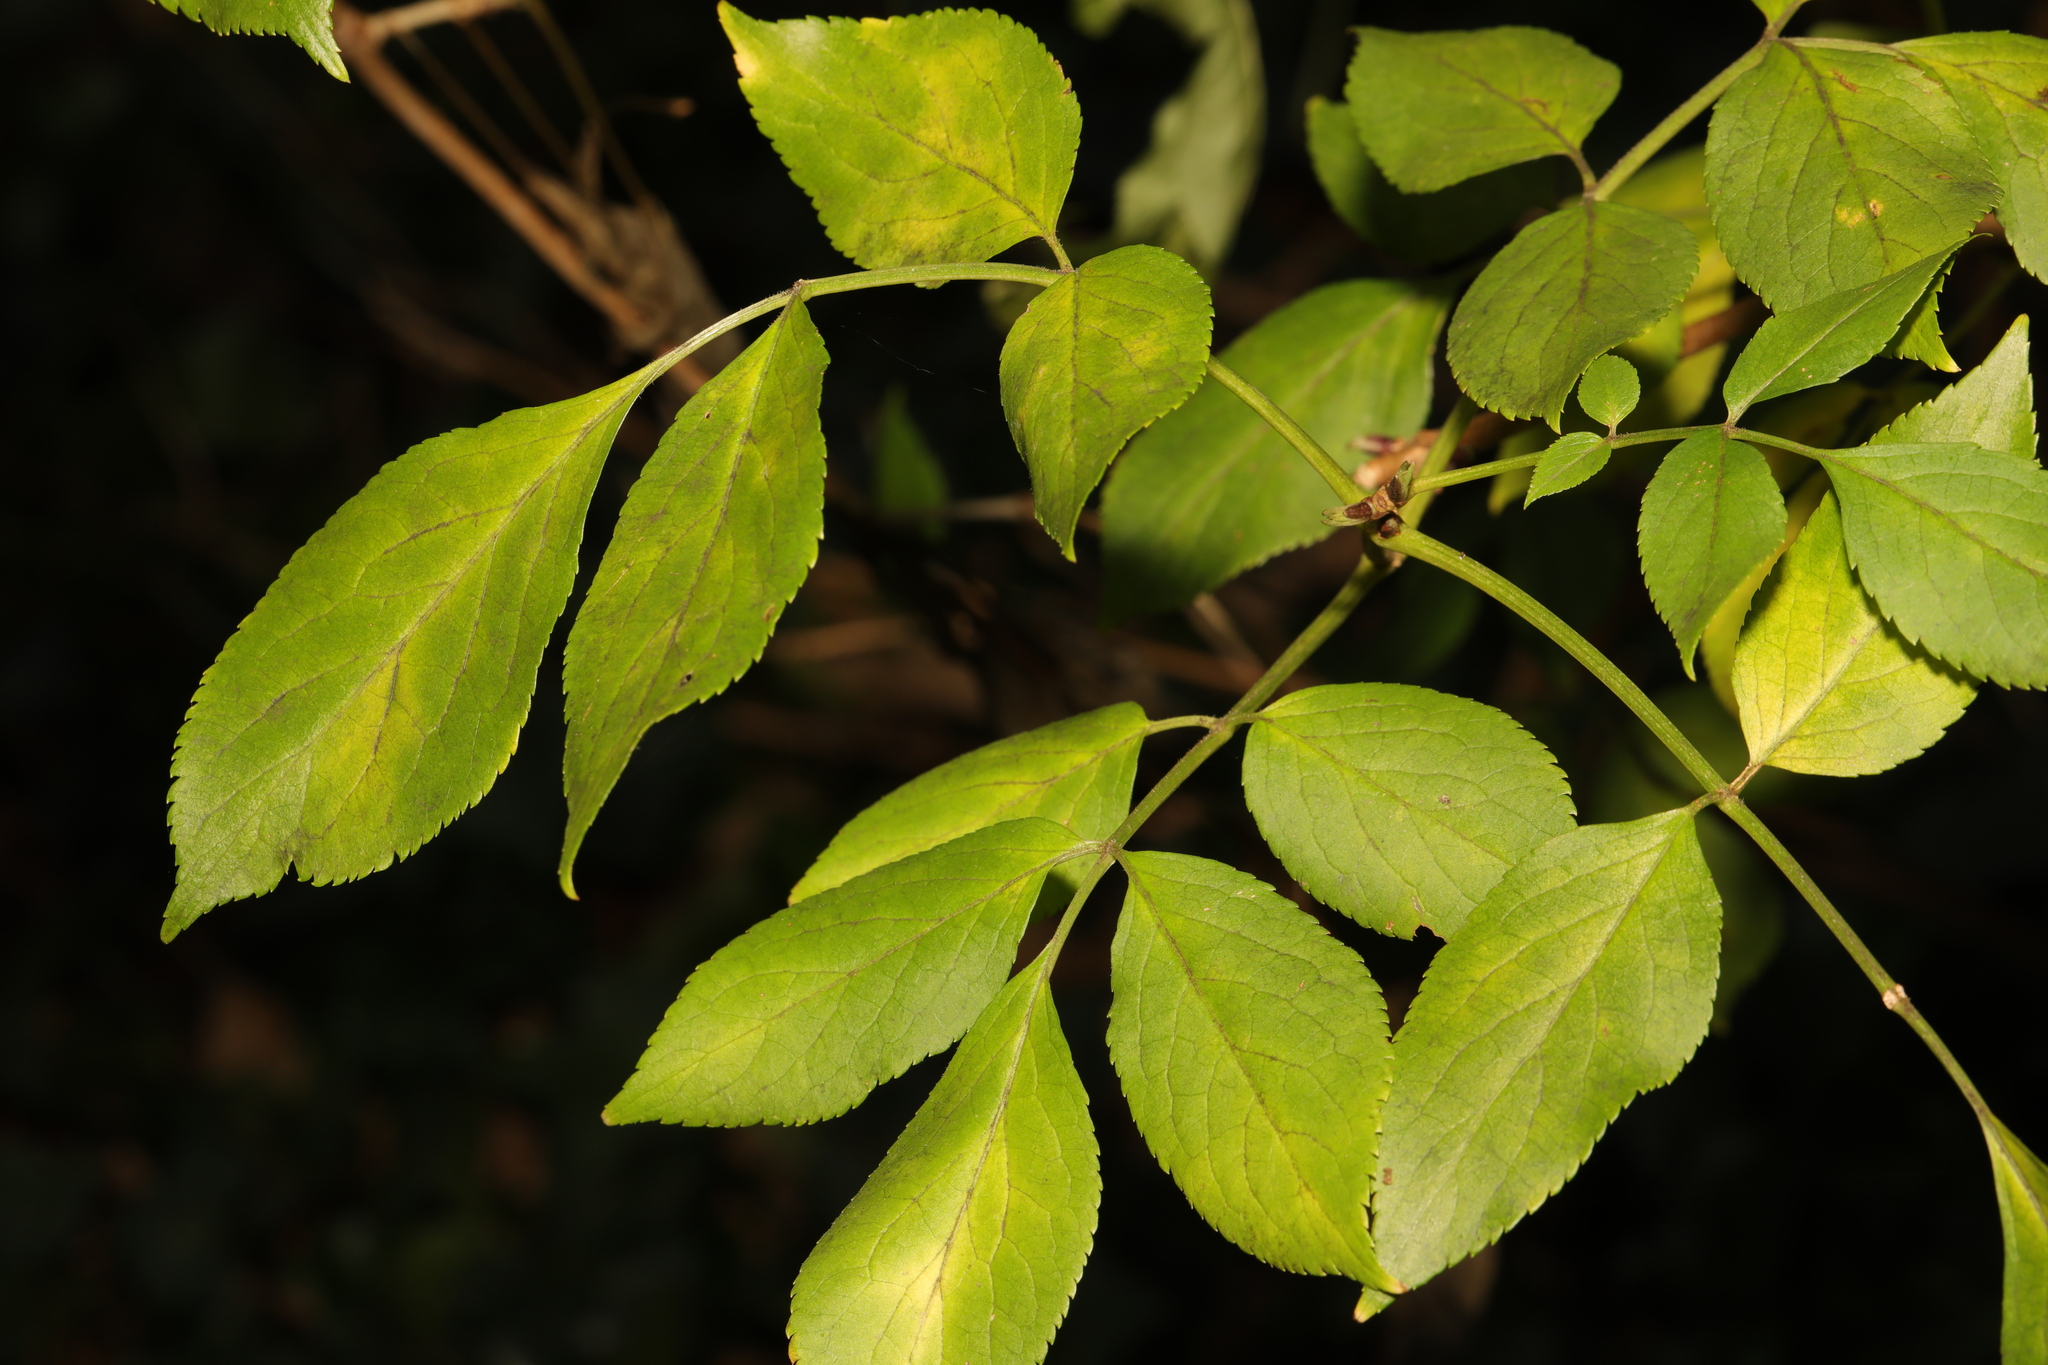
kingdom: Plantae
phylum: Tracheophyta
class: Magnoliopsida
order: Dipsacales
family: Viburnaceae
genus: Sambucus
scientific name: Sambucus nigra
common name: Elder
